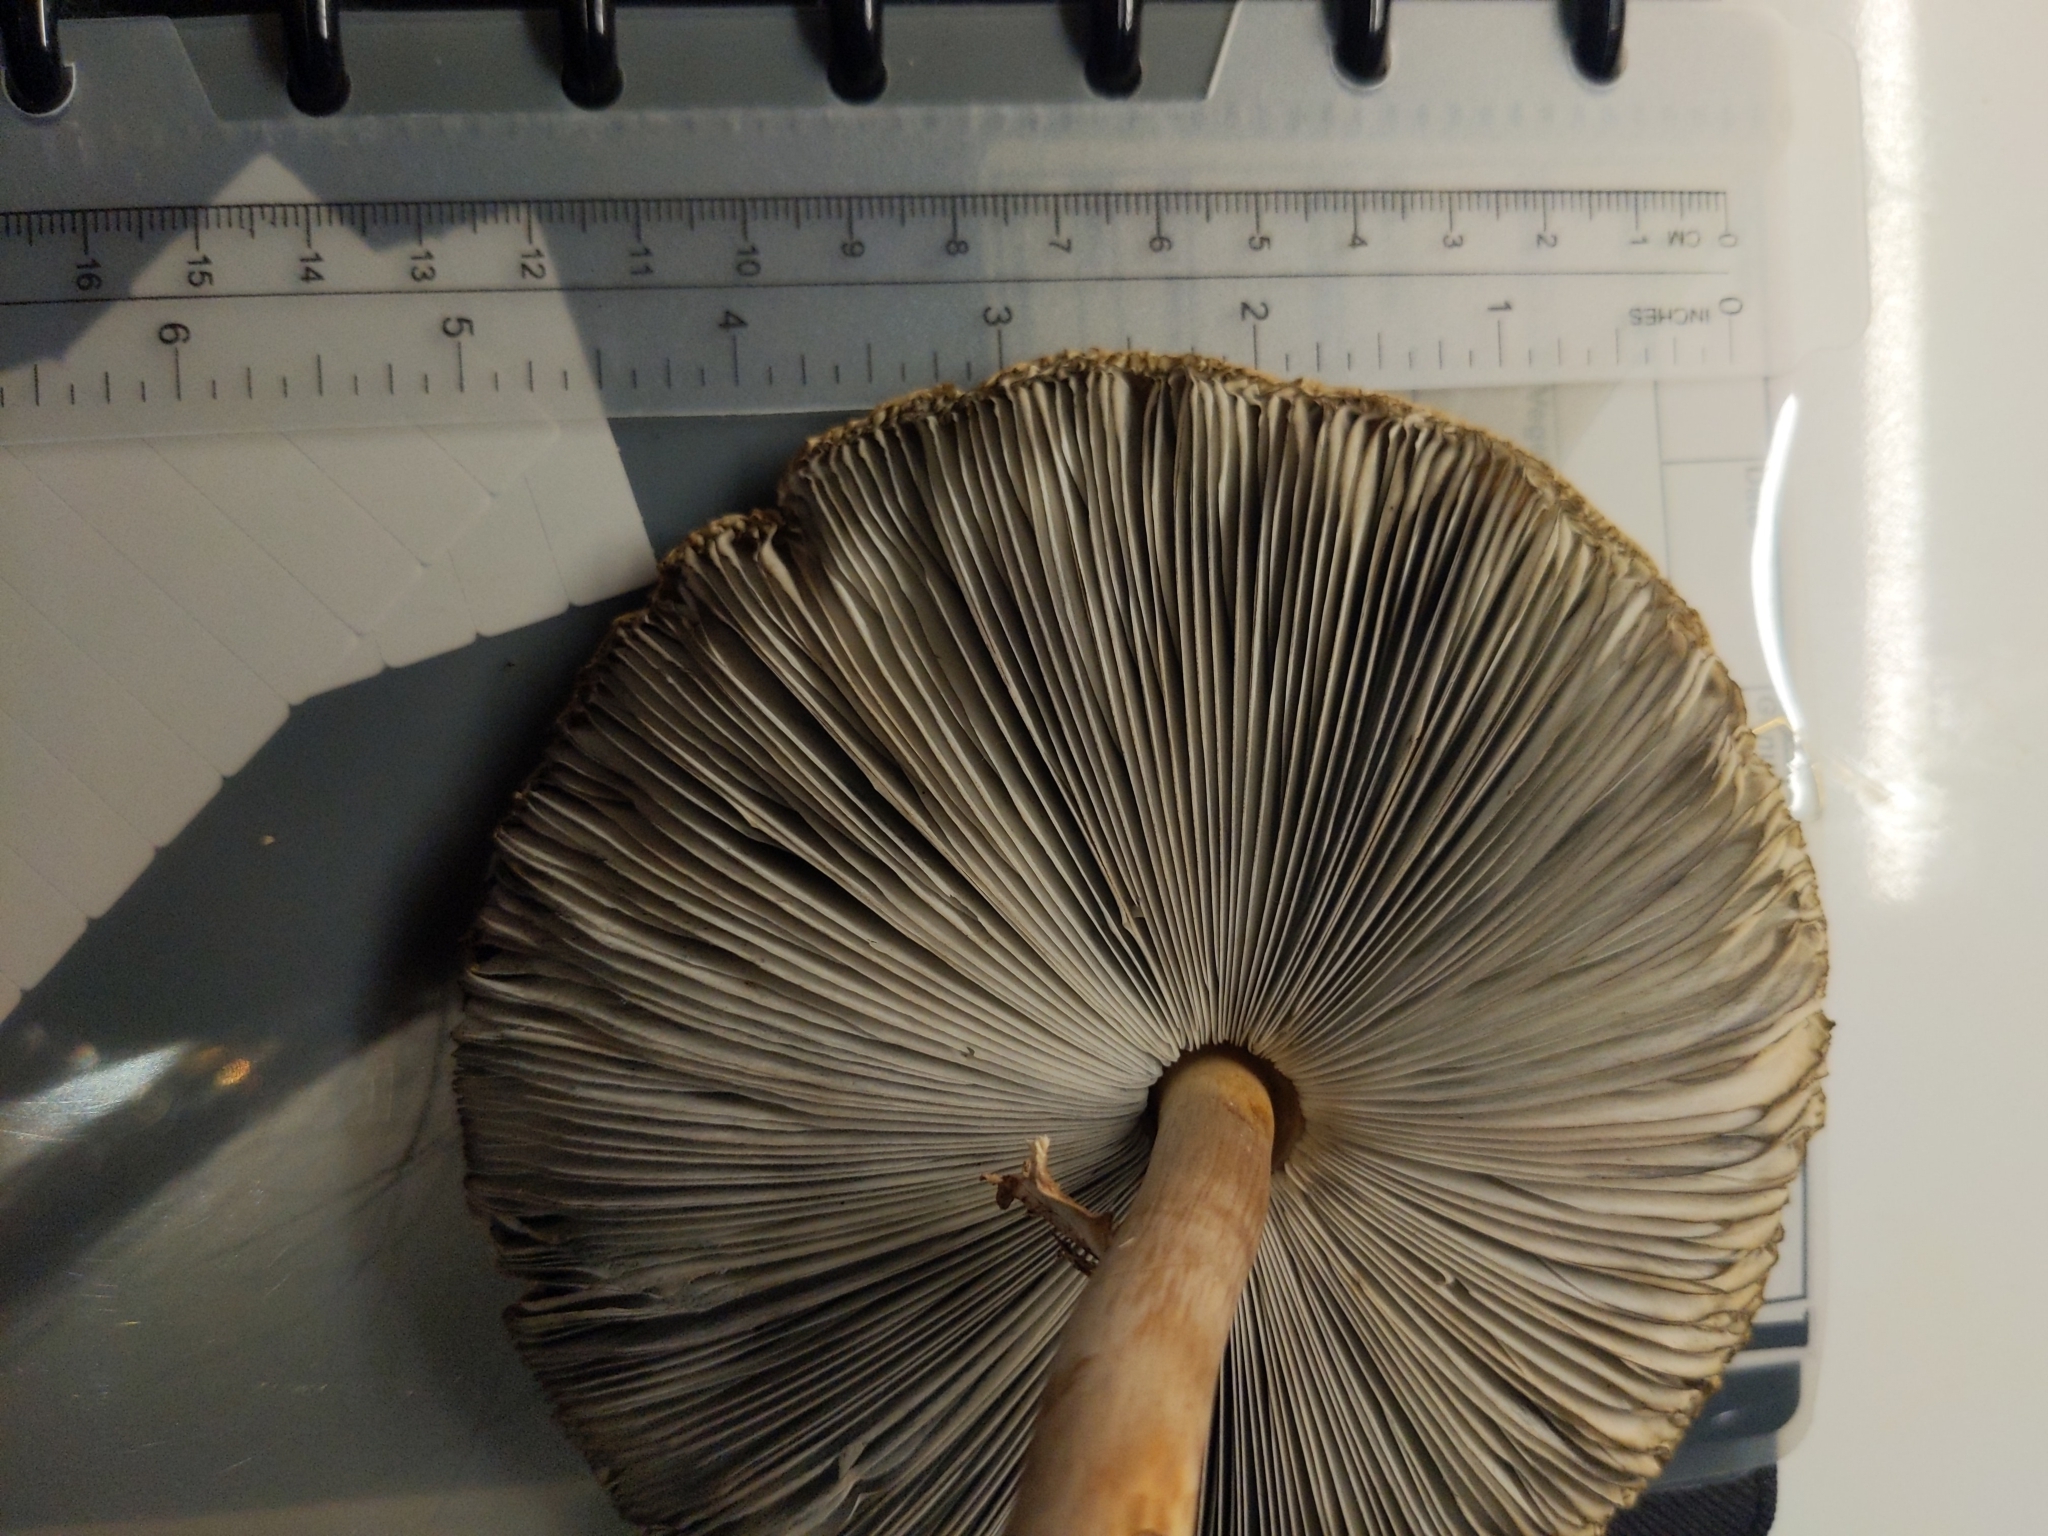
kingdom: Fungi
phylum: Basidiomycota
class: Agaricomycetes
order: Agaricales
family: Agaricaceae
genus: Chlorophyllum
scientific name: Chlorophyllum molybdites
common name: False parasol
